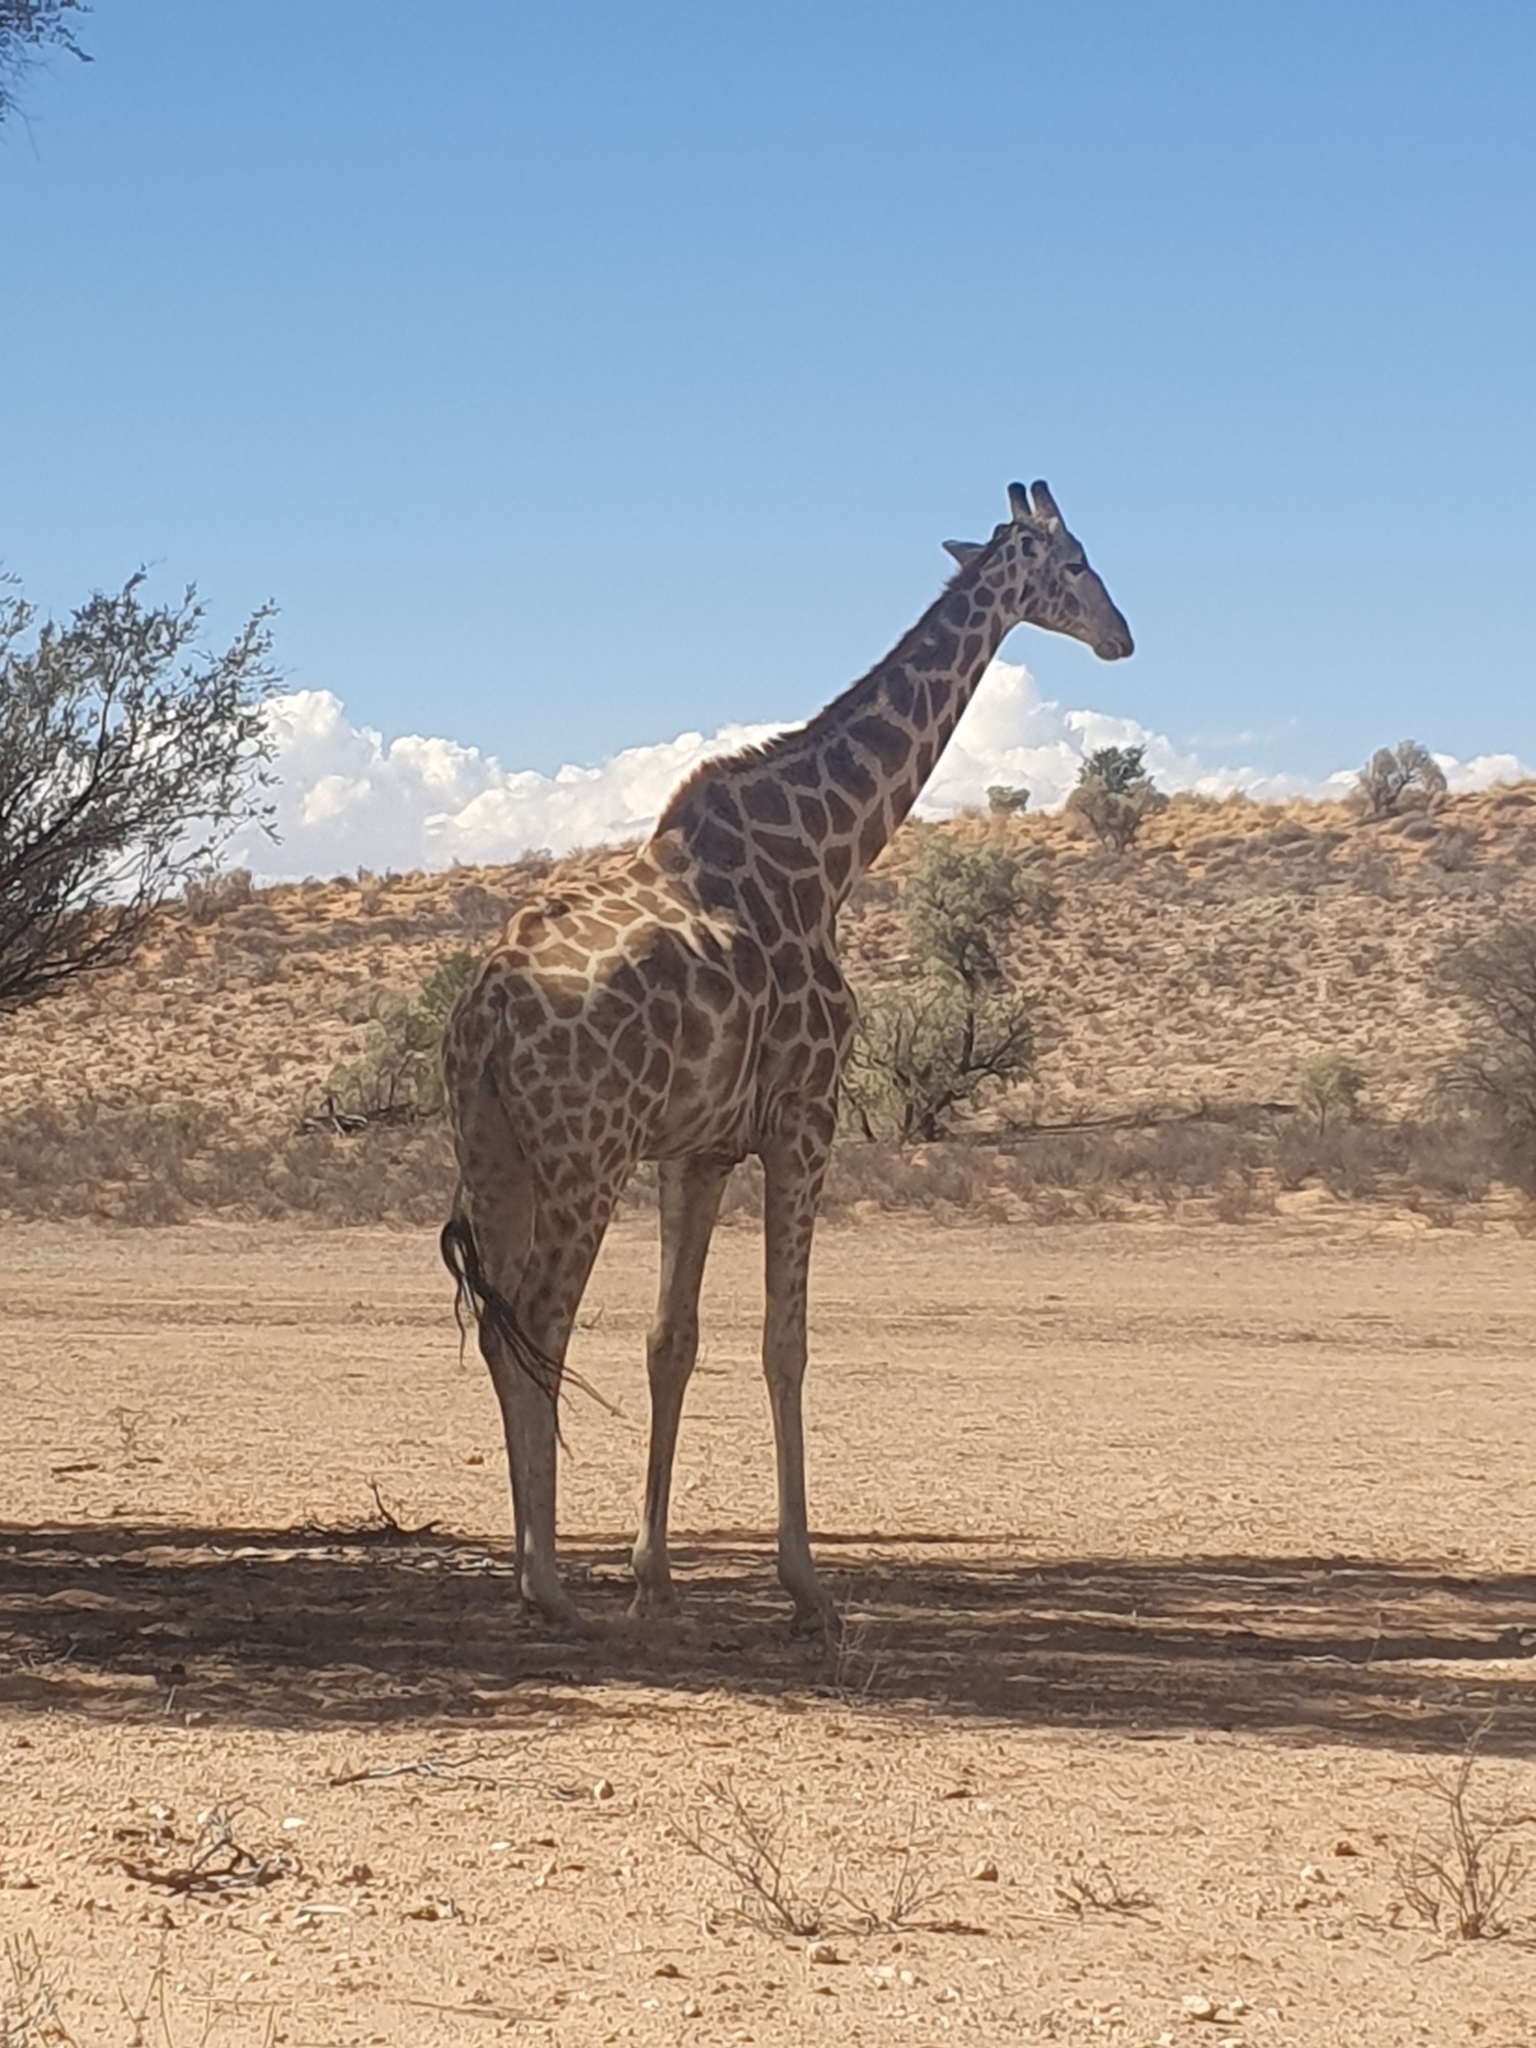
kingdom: Animalia
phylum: Chordata
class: Mammalia
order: Artiodactyla
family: Giraffidae
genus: Giraffa
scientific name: Giraffa giraffa
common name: Southern giraffe
